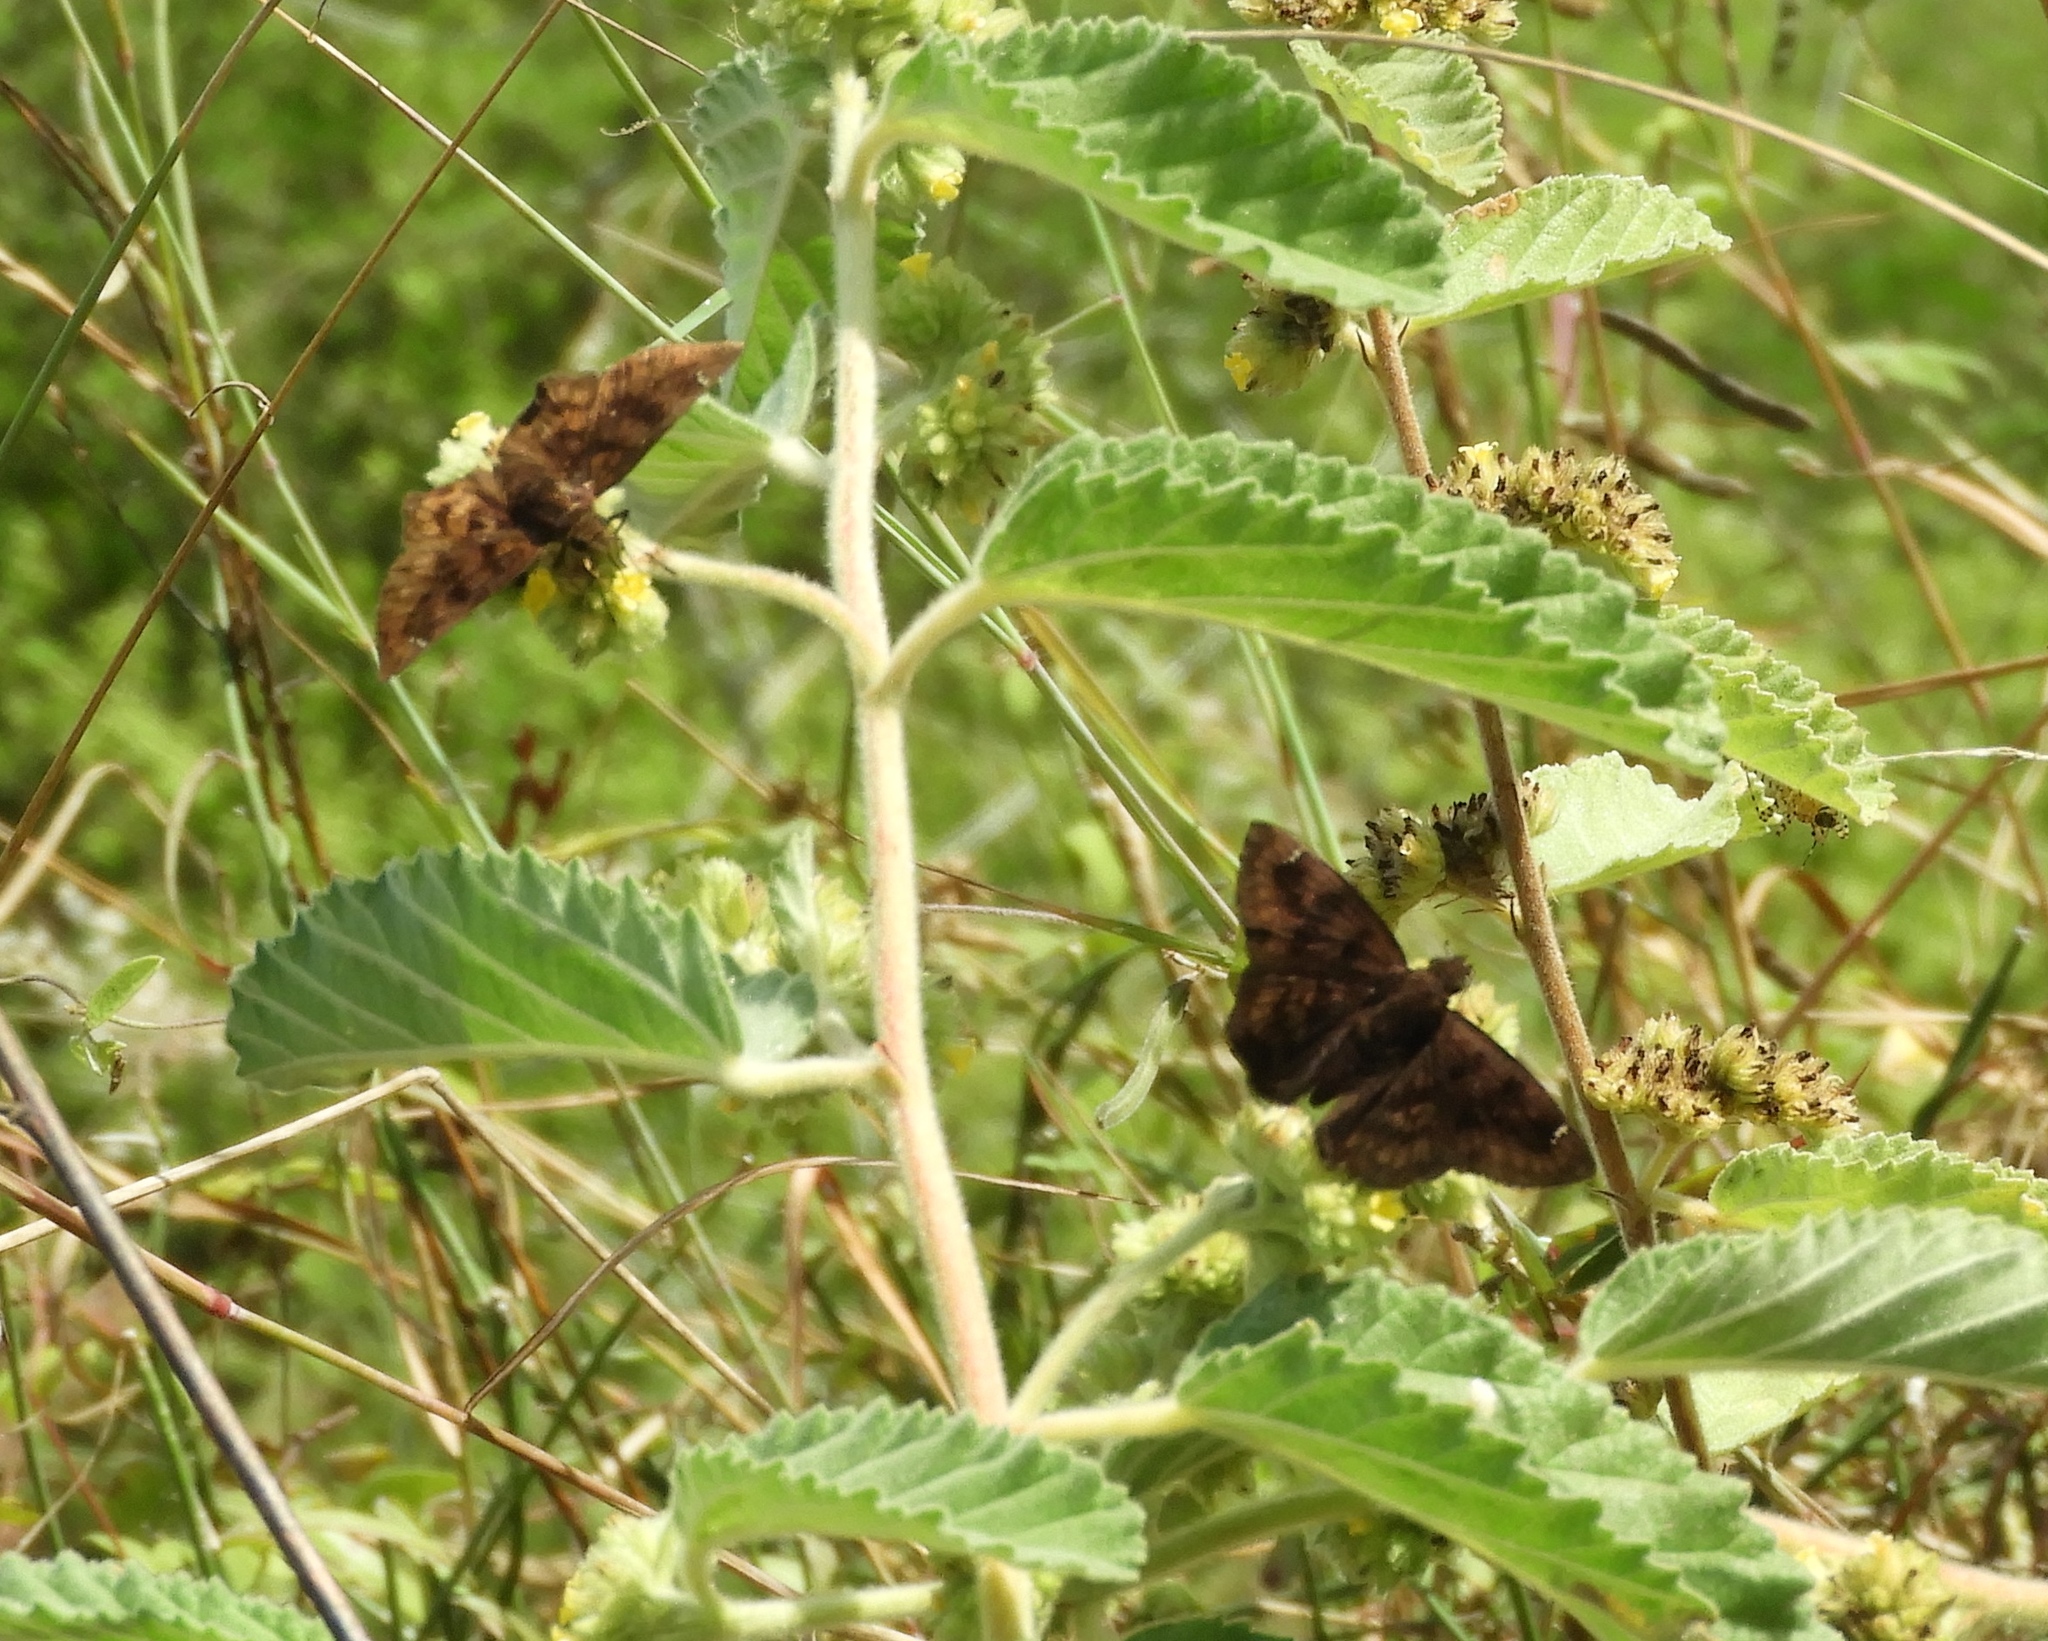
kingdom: Animalia
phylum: Arthropoda
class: Insecta
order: Lepidoptera
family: Hesperiidae
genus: Pyrginae
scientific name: Pyrginae
